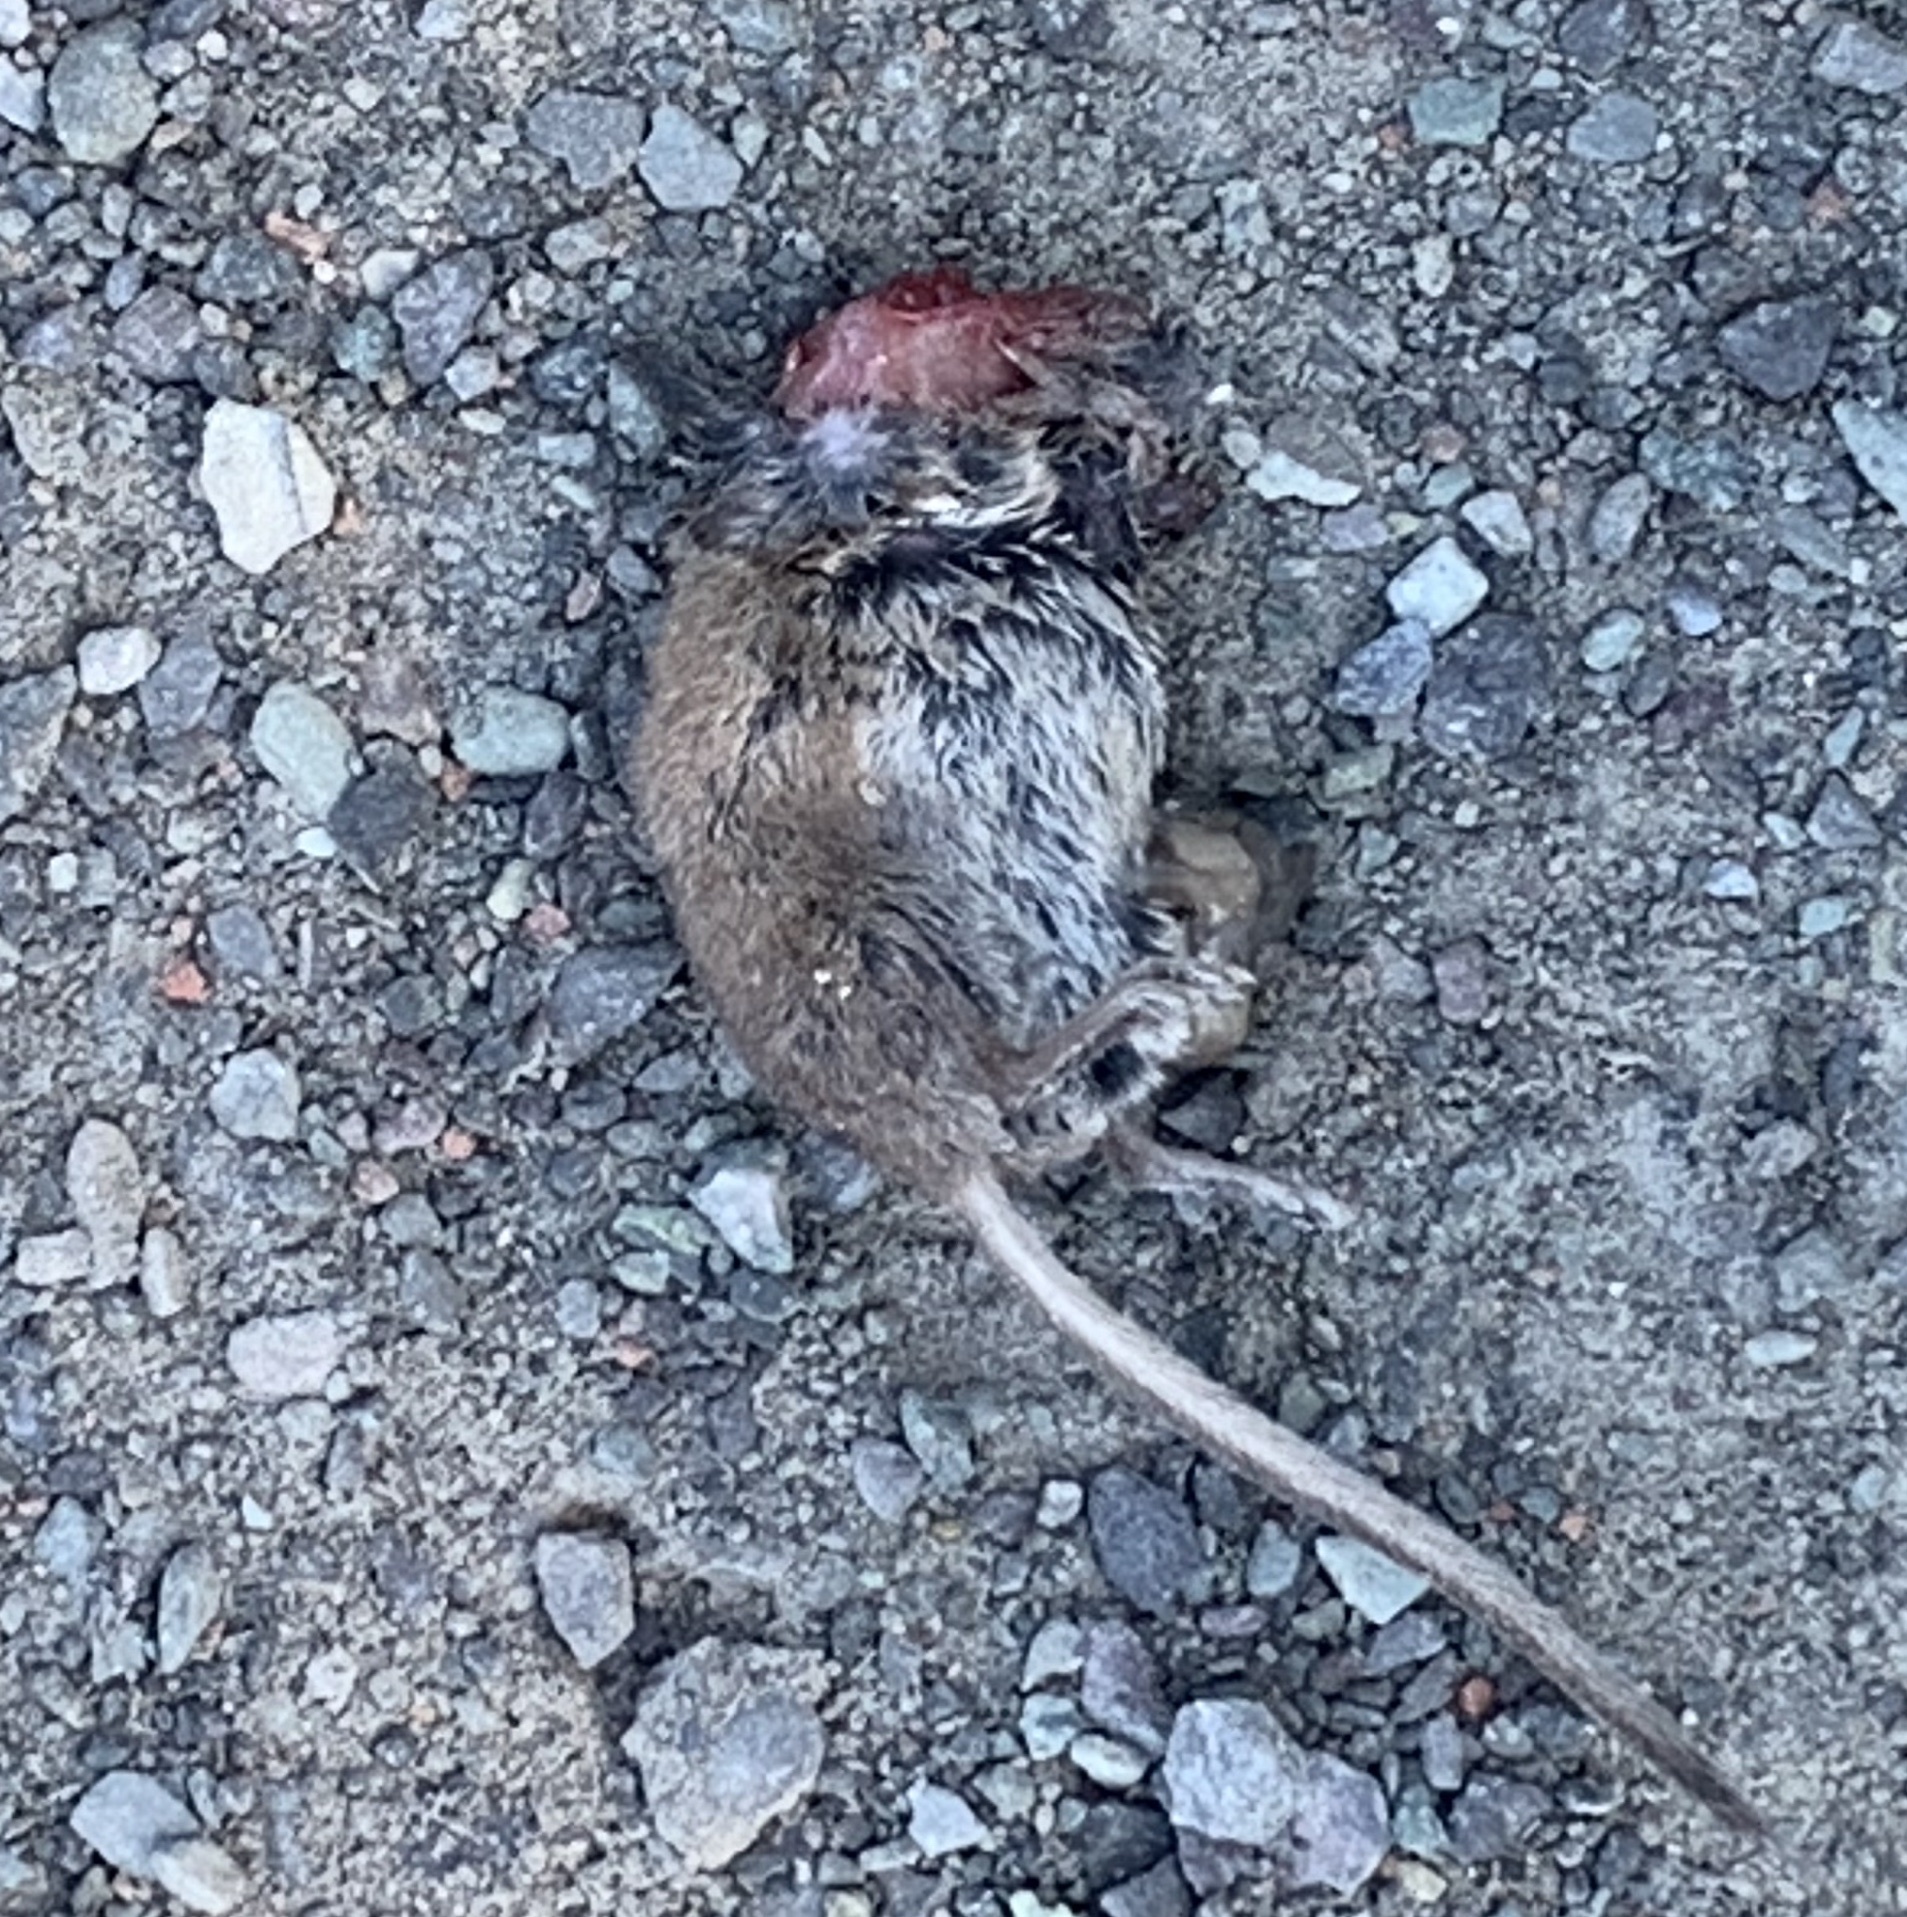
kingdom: Animalia
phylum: Chordata
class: Mammalia
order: Rodentia
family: Cricetidae
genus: Peromyscus
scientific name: Peromyscus
